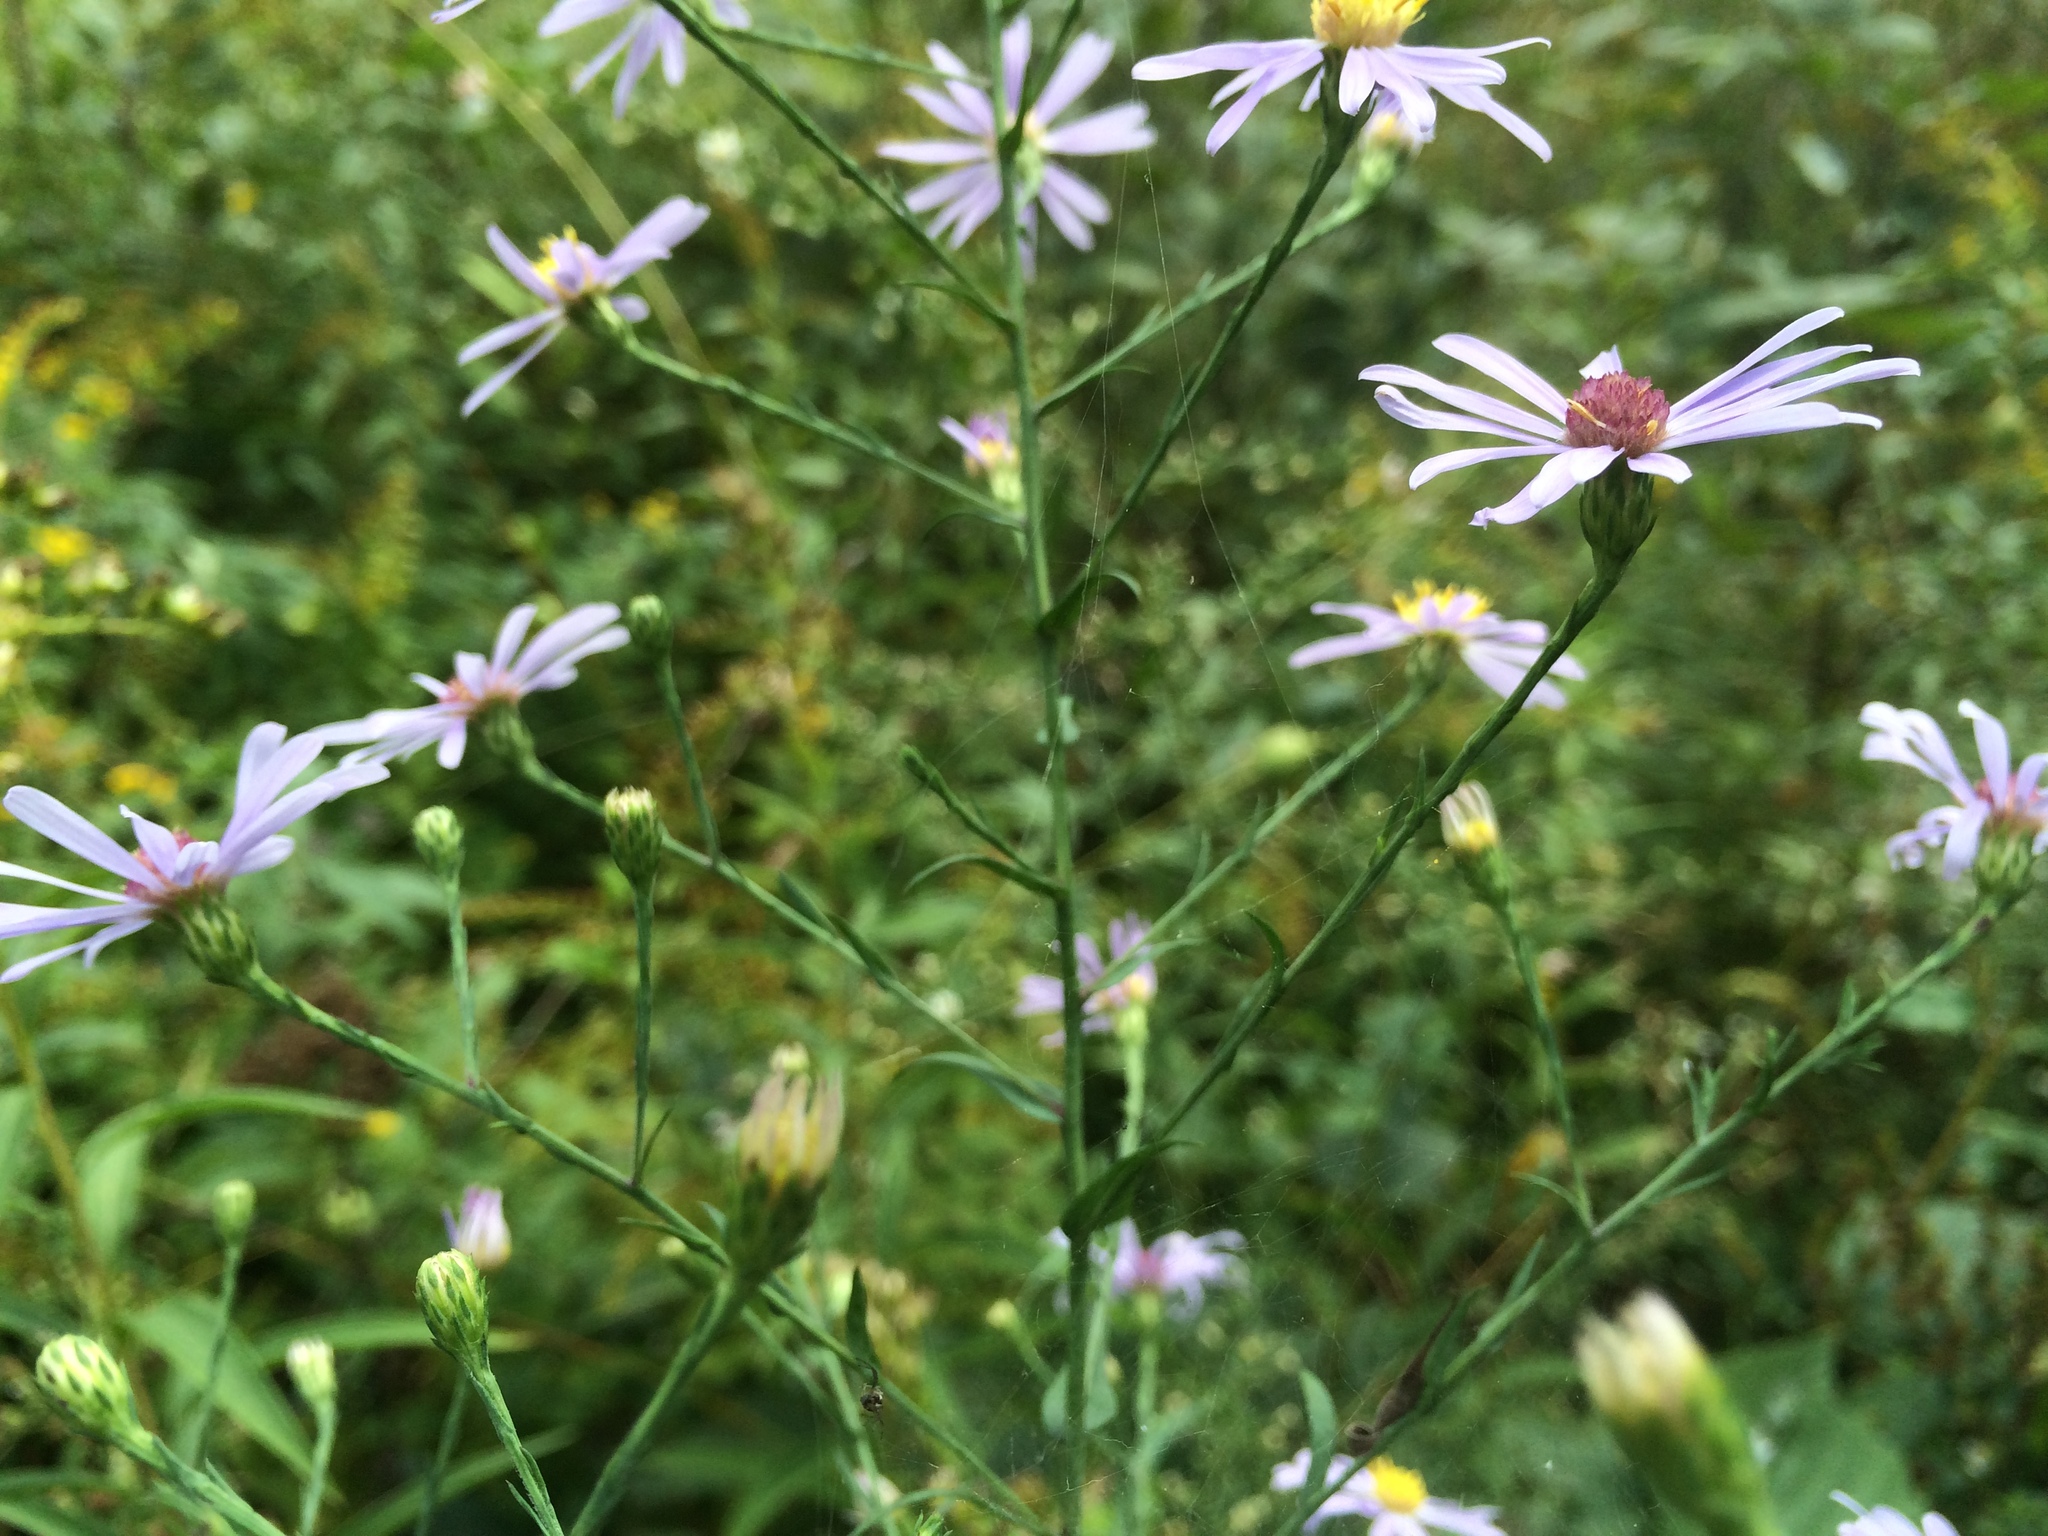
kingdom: Plantae
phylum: Tracheophyta
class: Magnoliopsida
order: Asterales
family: Asteraceae
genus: Symphyotrichum
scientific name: Symphyotrichum laeve
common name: Glaucous aster
